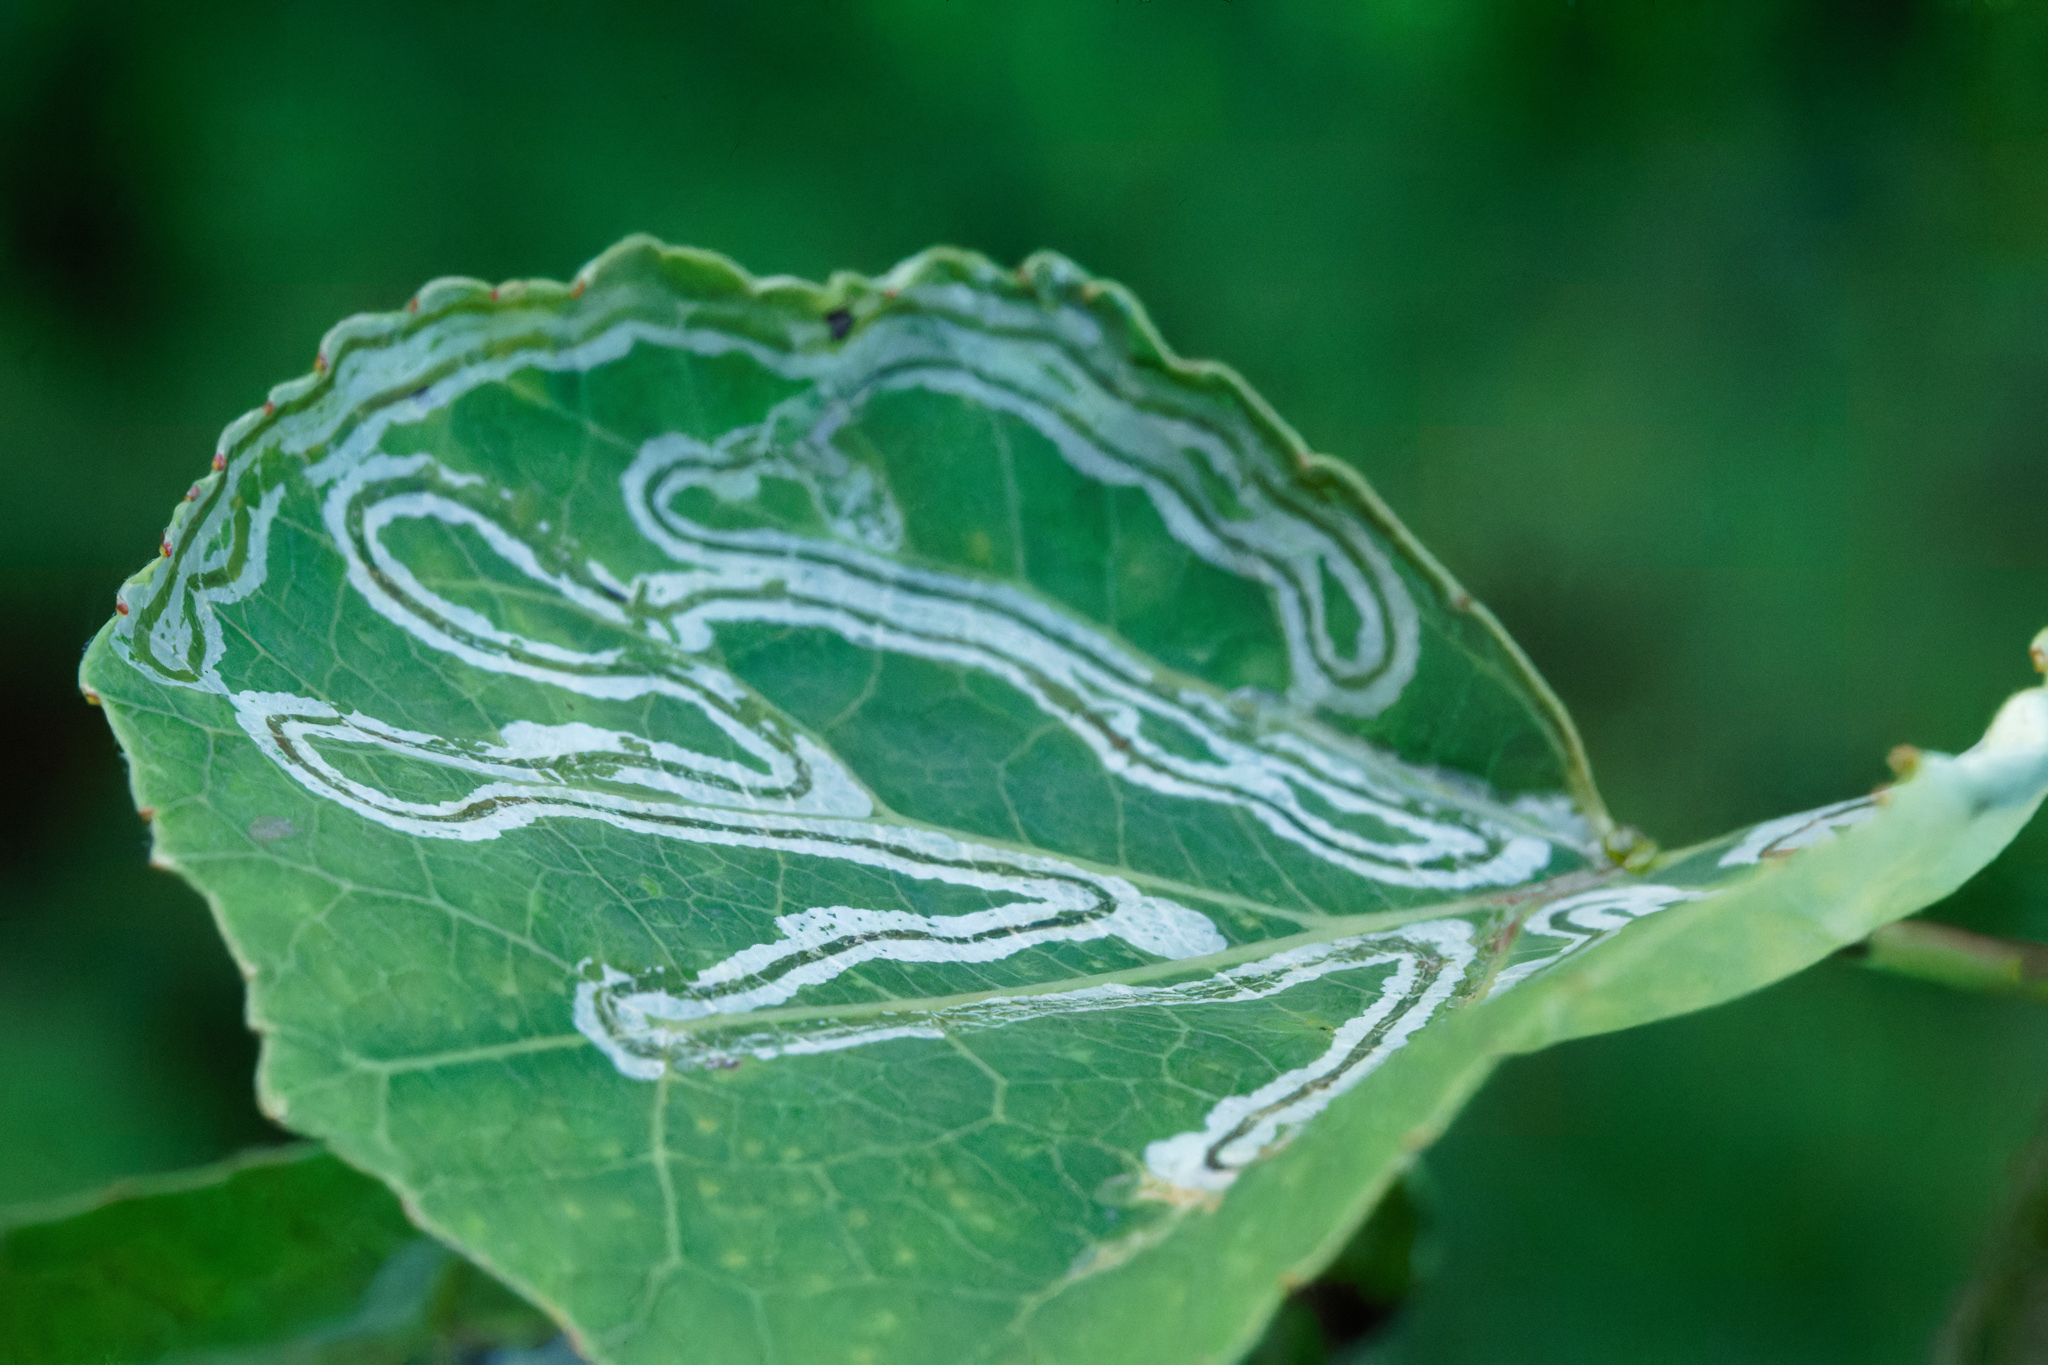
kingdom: Animalia
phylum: Arthropoda
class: Insecta
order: Lepidoptera
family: Gracillariidae
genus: Phyllocnistis
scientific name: Phyllocnistis populiella
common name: Aspen serpentine leafminer moth
